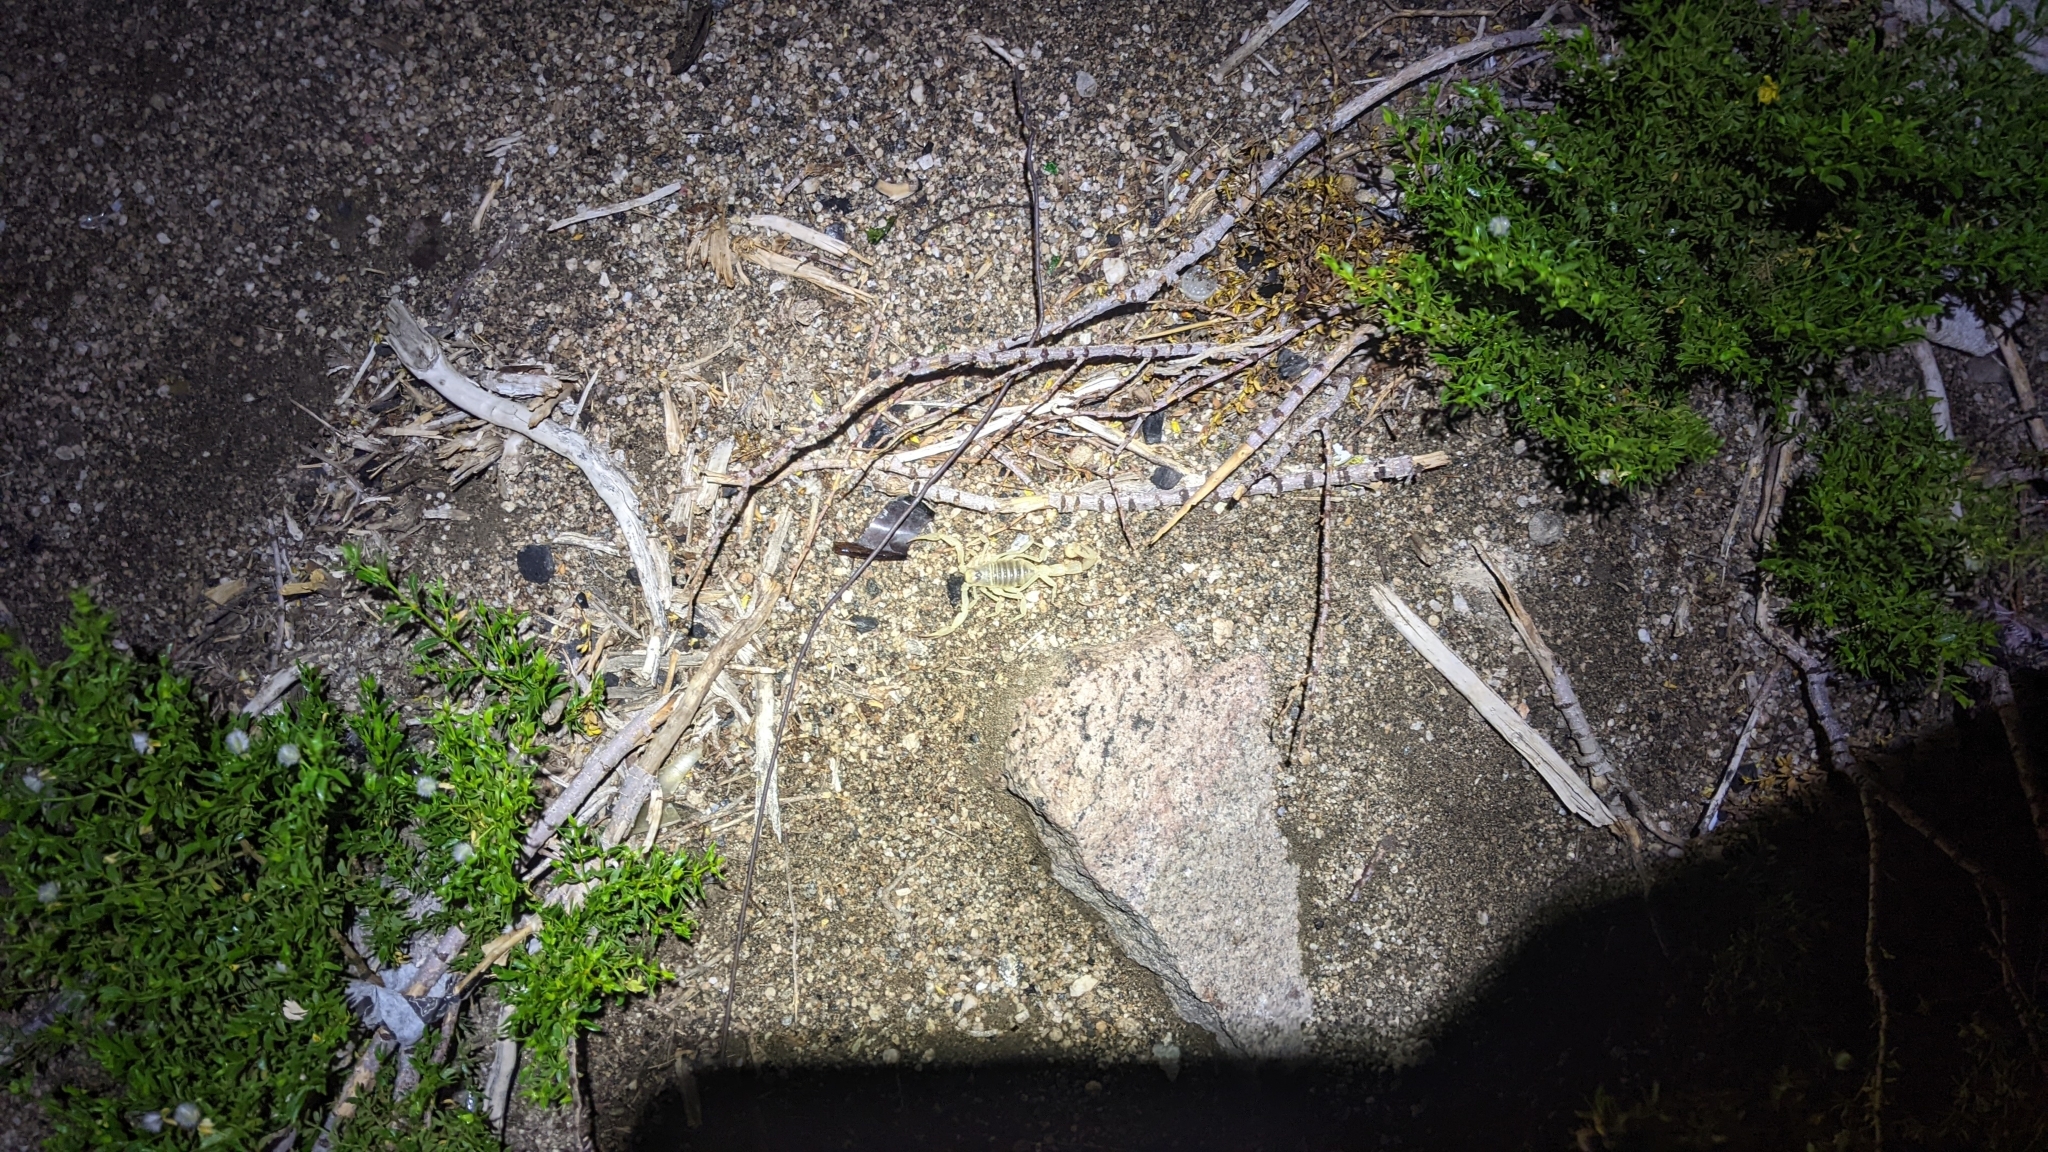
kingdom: Animalia
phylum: Arthropoda
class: Arachnida
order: Scorpiones
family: Hadruridae
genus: Hadrurus
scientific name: Hadrurus arizonensis
